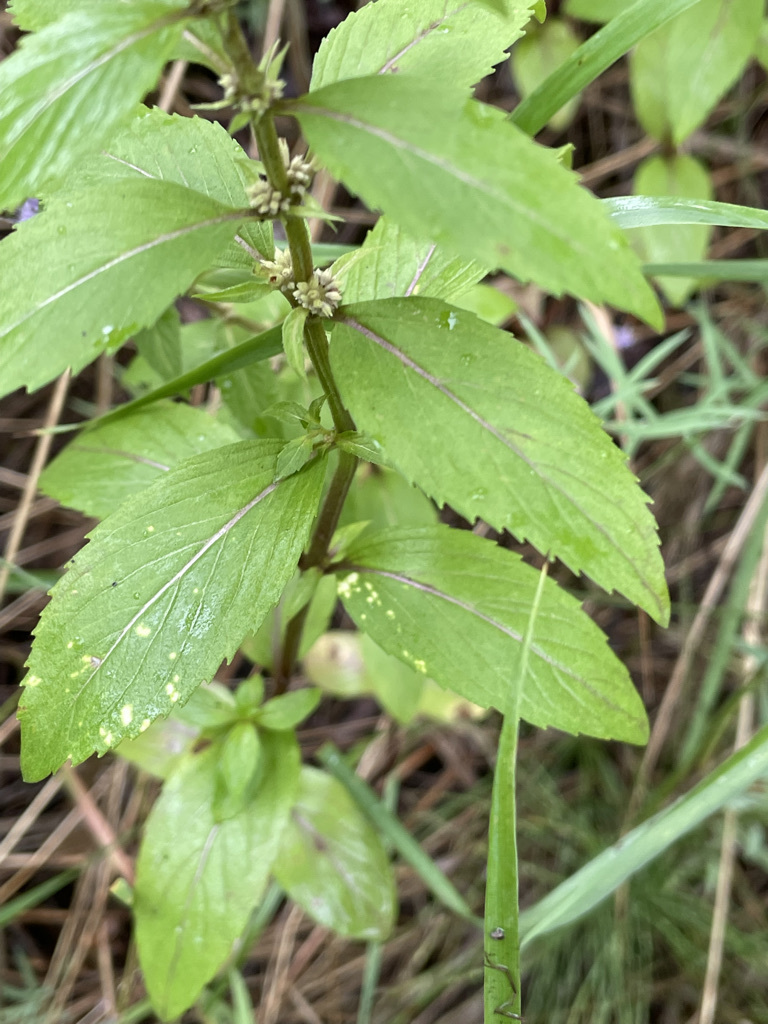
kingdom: Plantae
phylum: Tracheophyta
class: Magnoliopsida
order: Lamiales
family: Lamiaceae
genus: Mentha
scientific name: Mentha canadensis
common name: American corn mint
